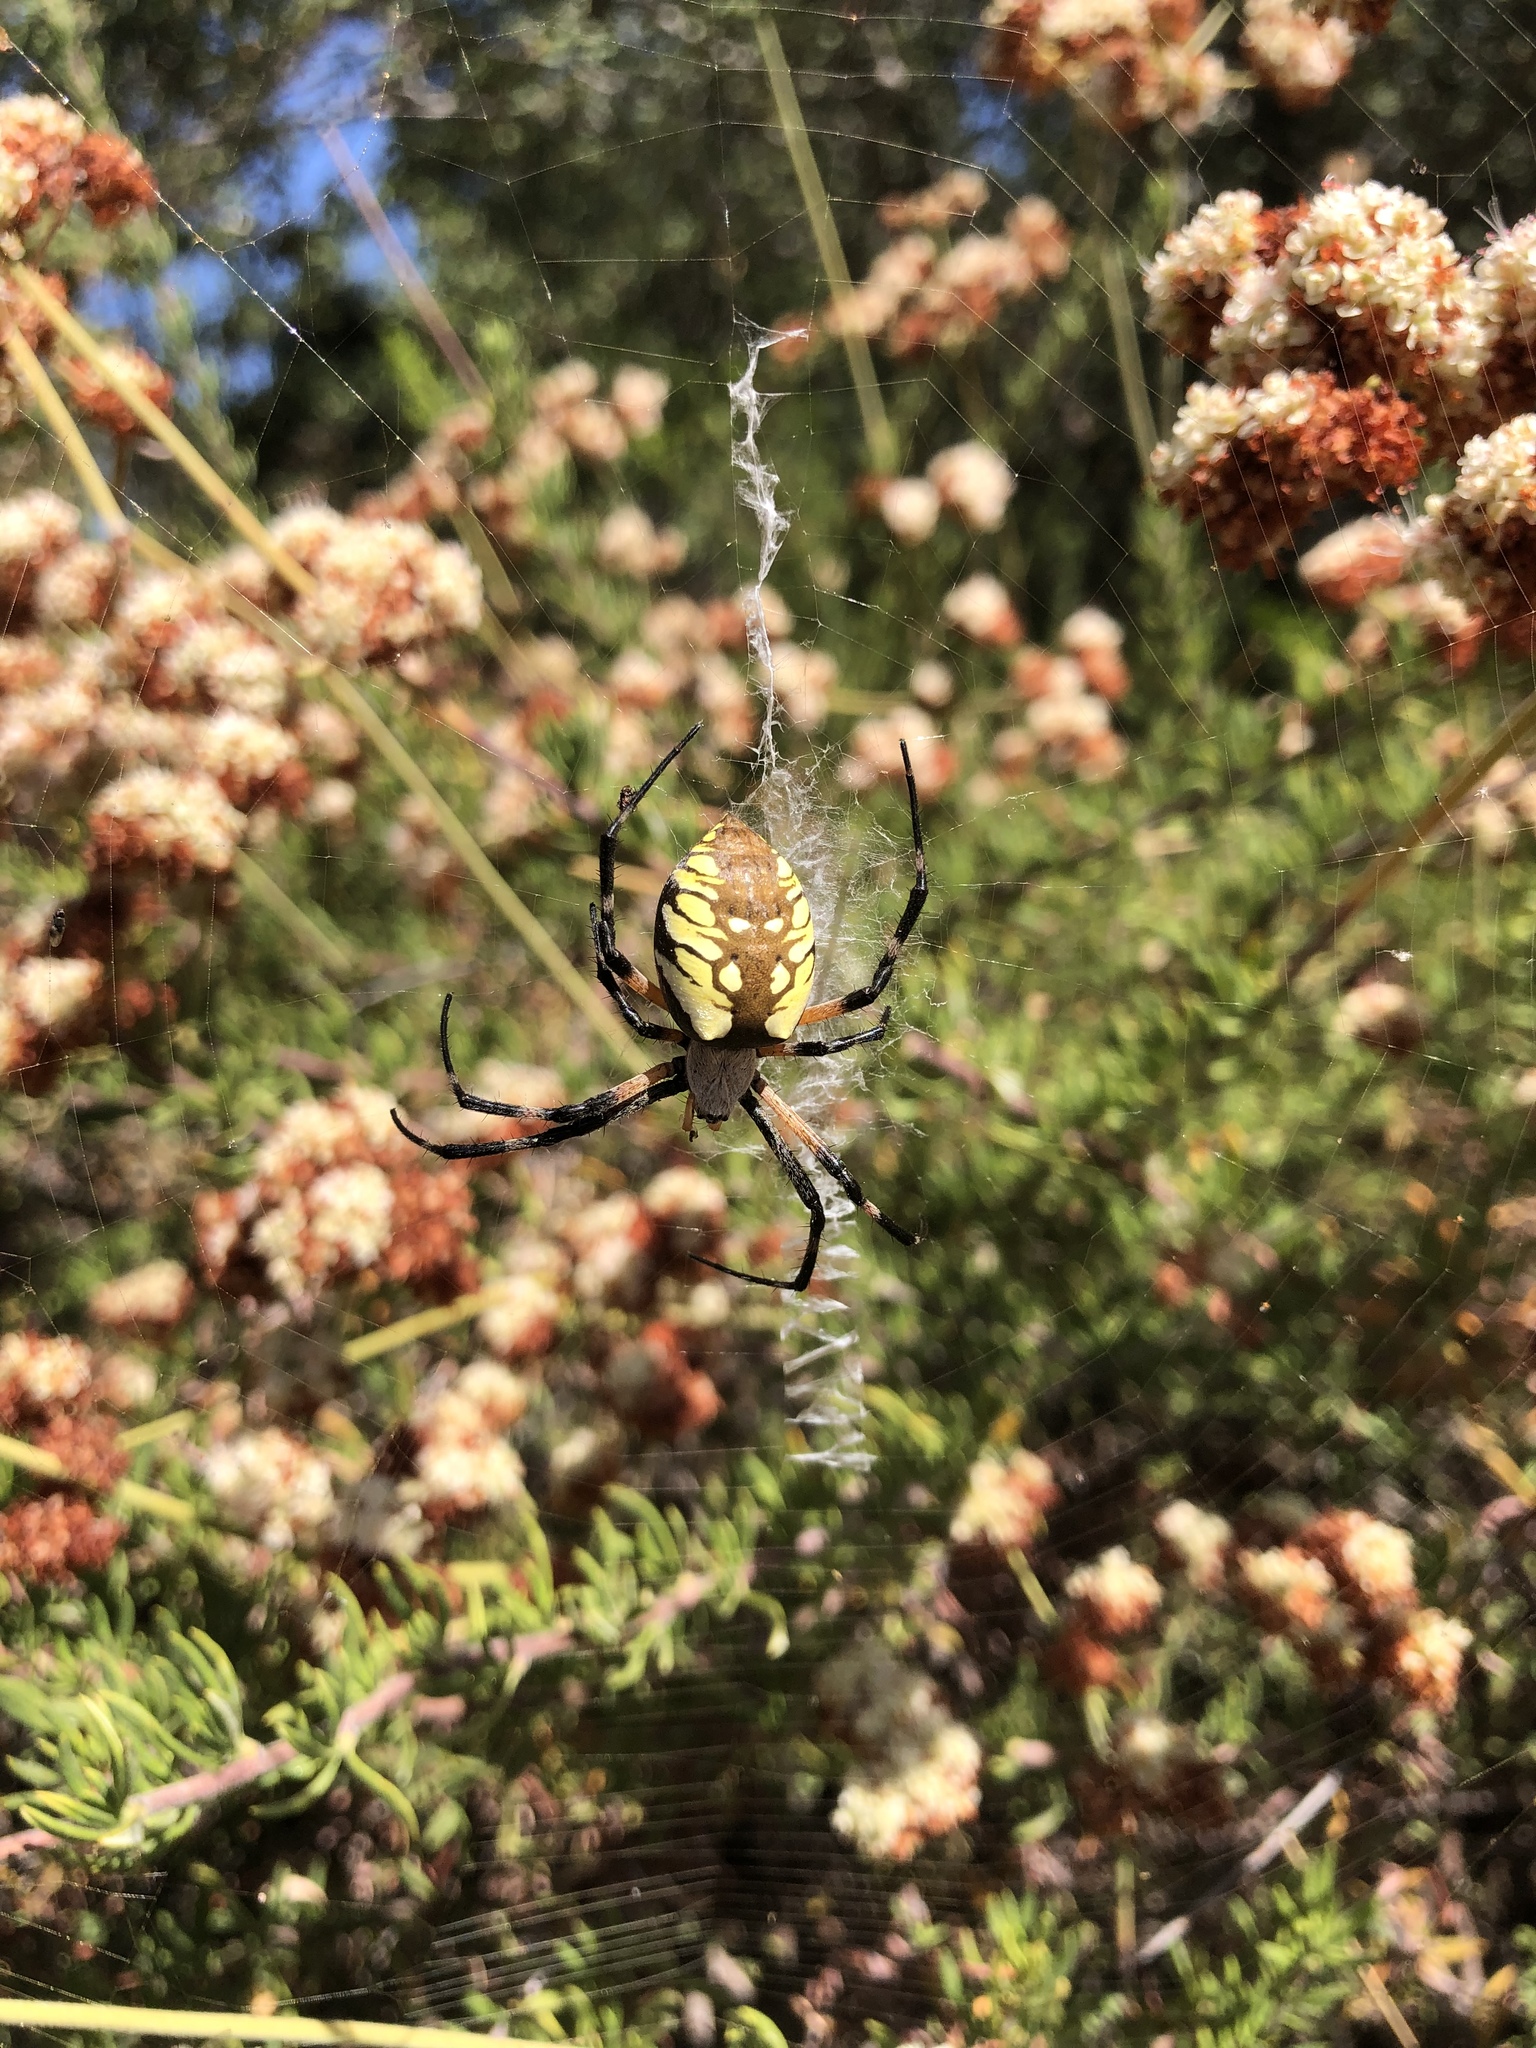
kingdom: Animalia
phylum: Arthropoda
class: Arachnida
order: Araneae
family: Araneidae
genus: Argiope
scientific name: Argiope aurantia
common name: Orb weavers
